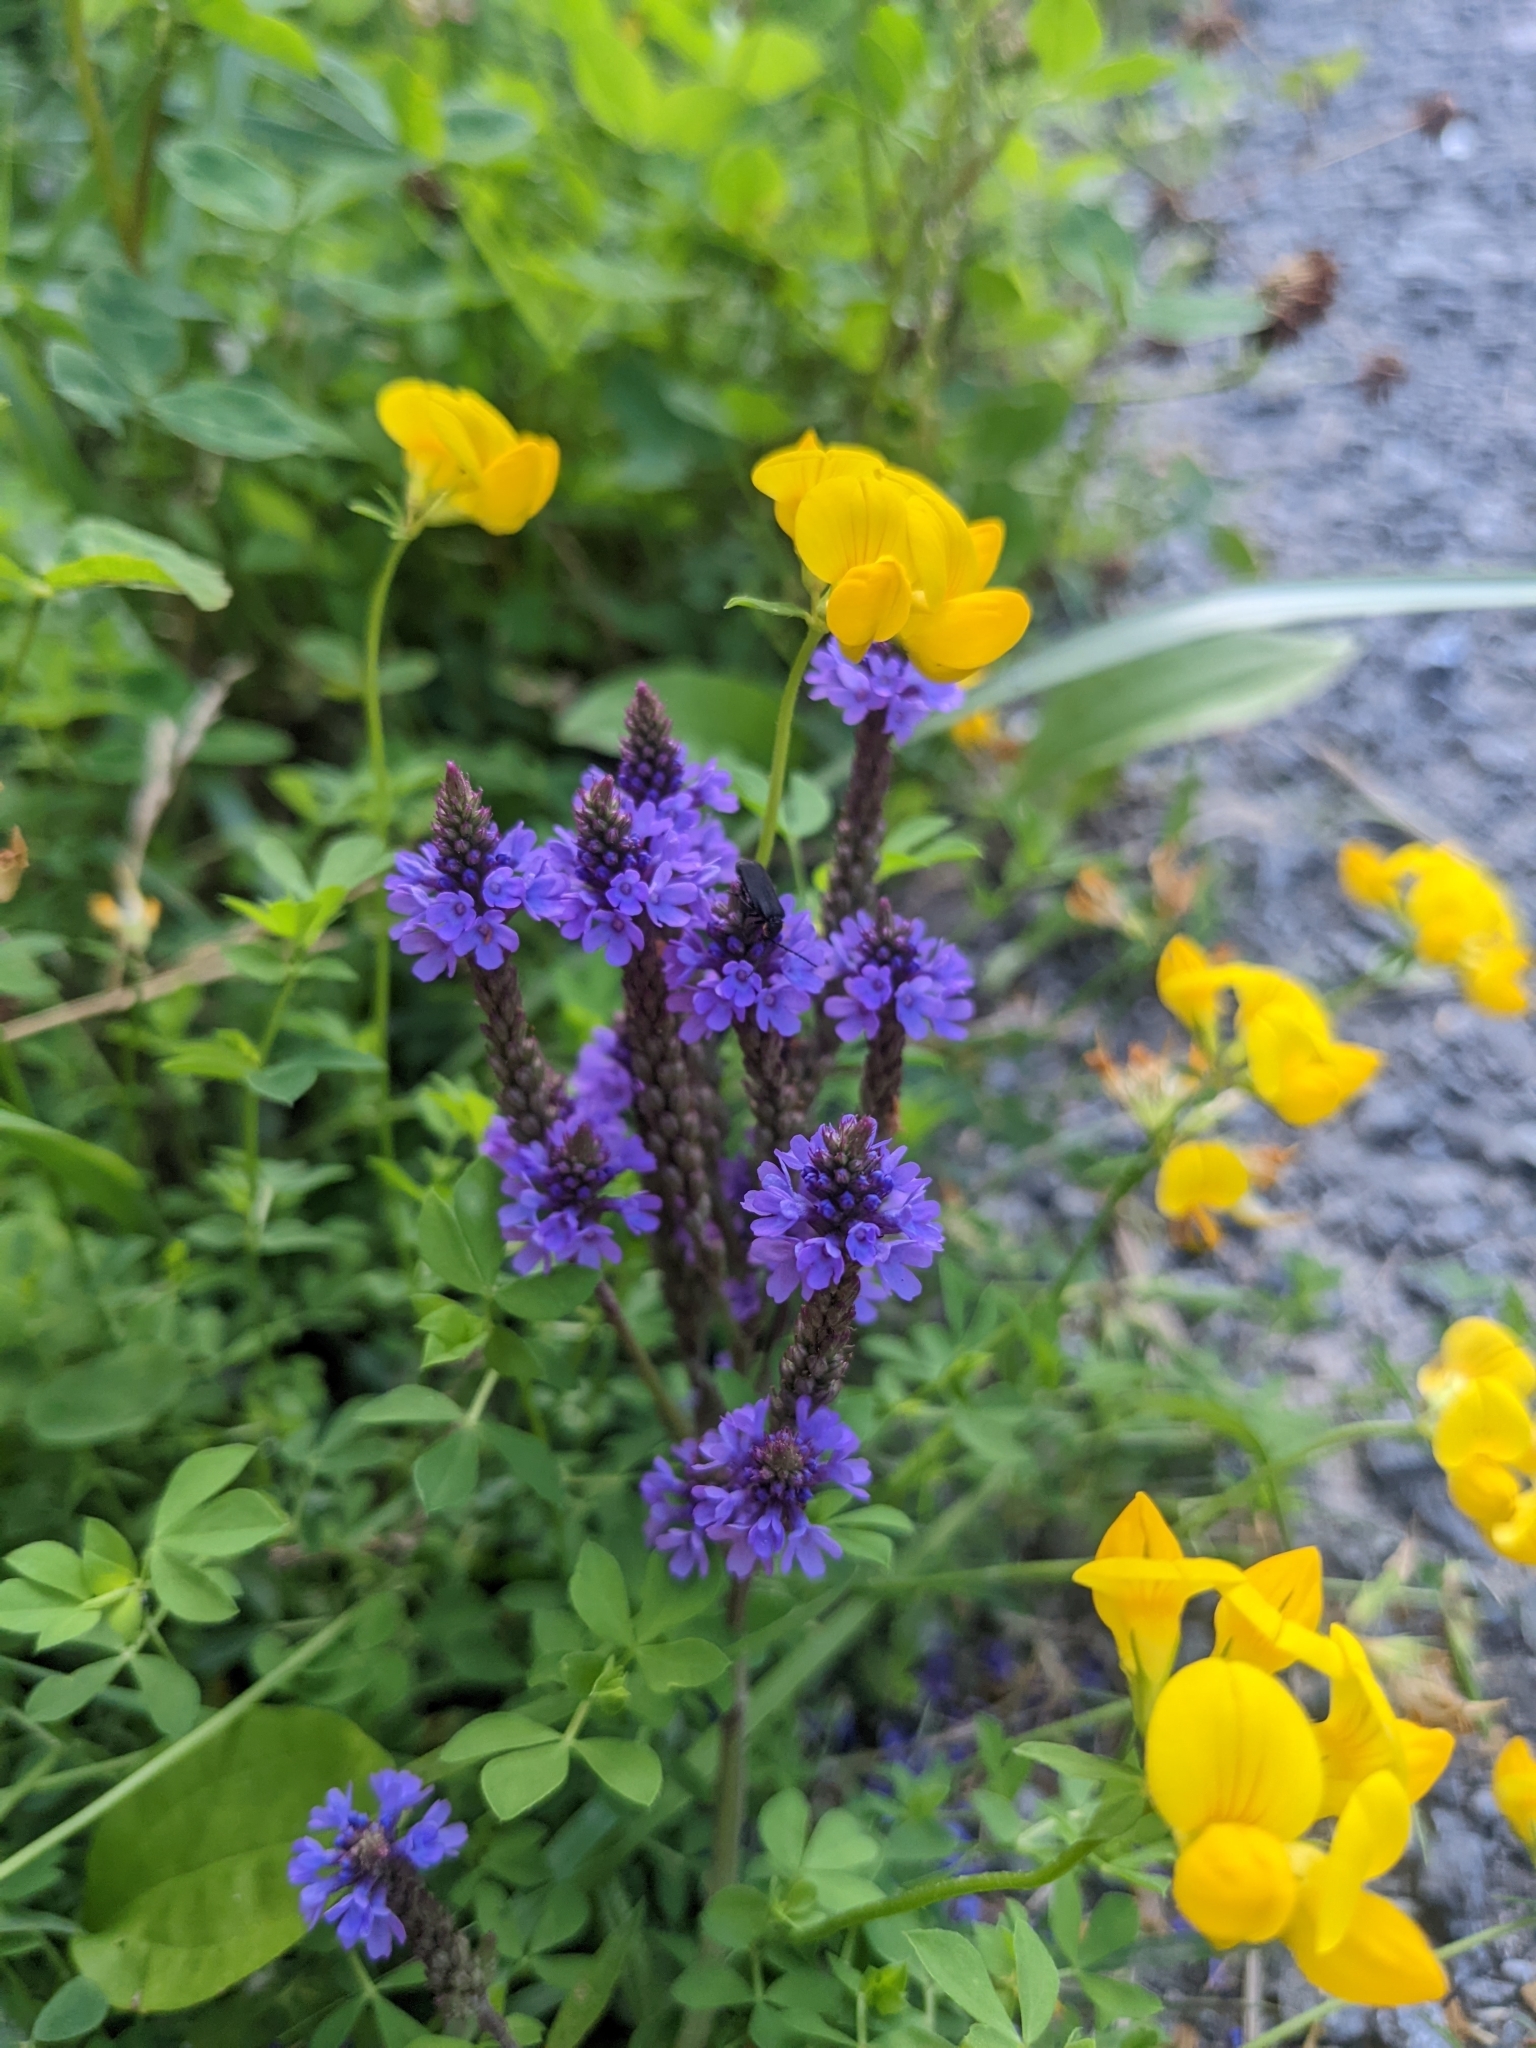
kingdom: Plantae
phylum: Tracheophyta
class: Magnoliopsida
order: Lamiales
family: Verbenaceae
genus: Verbena
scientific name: Verbena hastata
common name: American blue vervain
